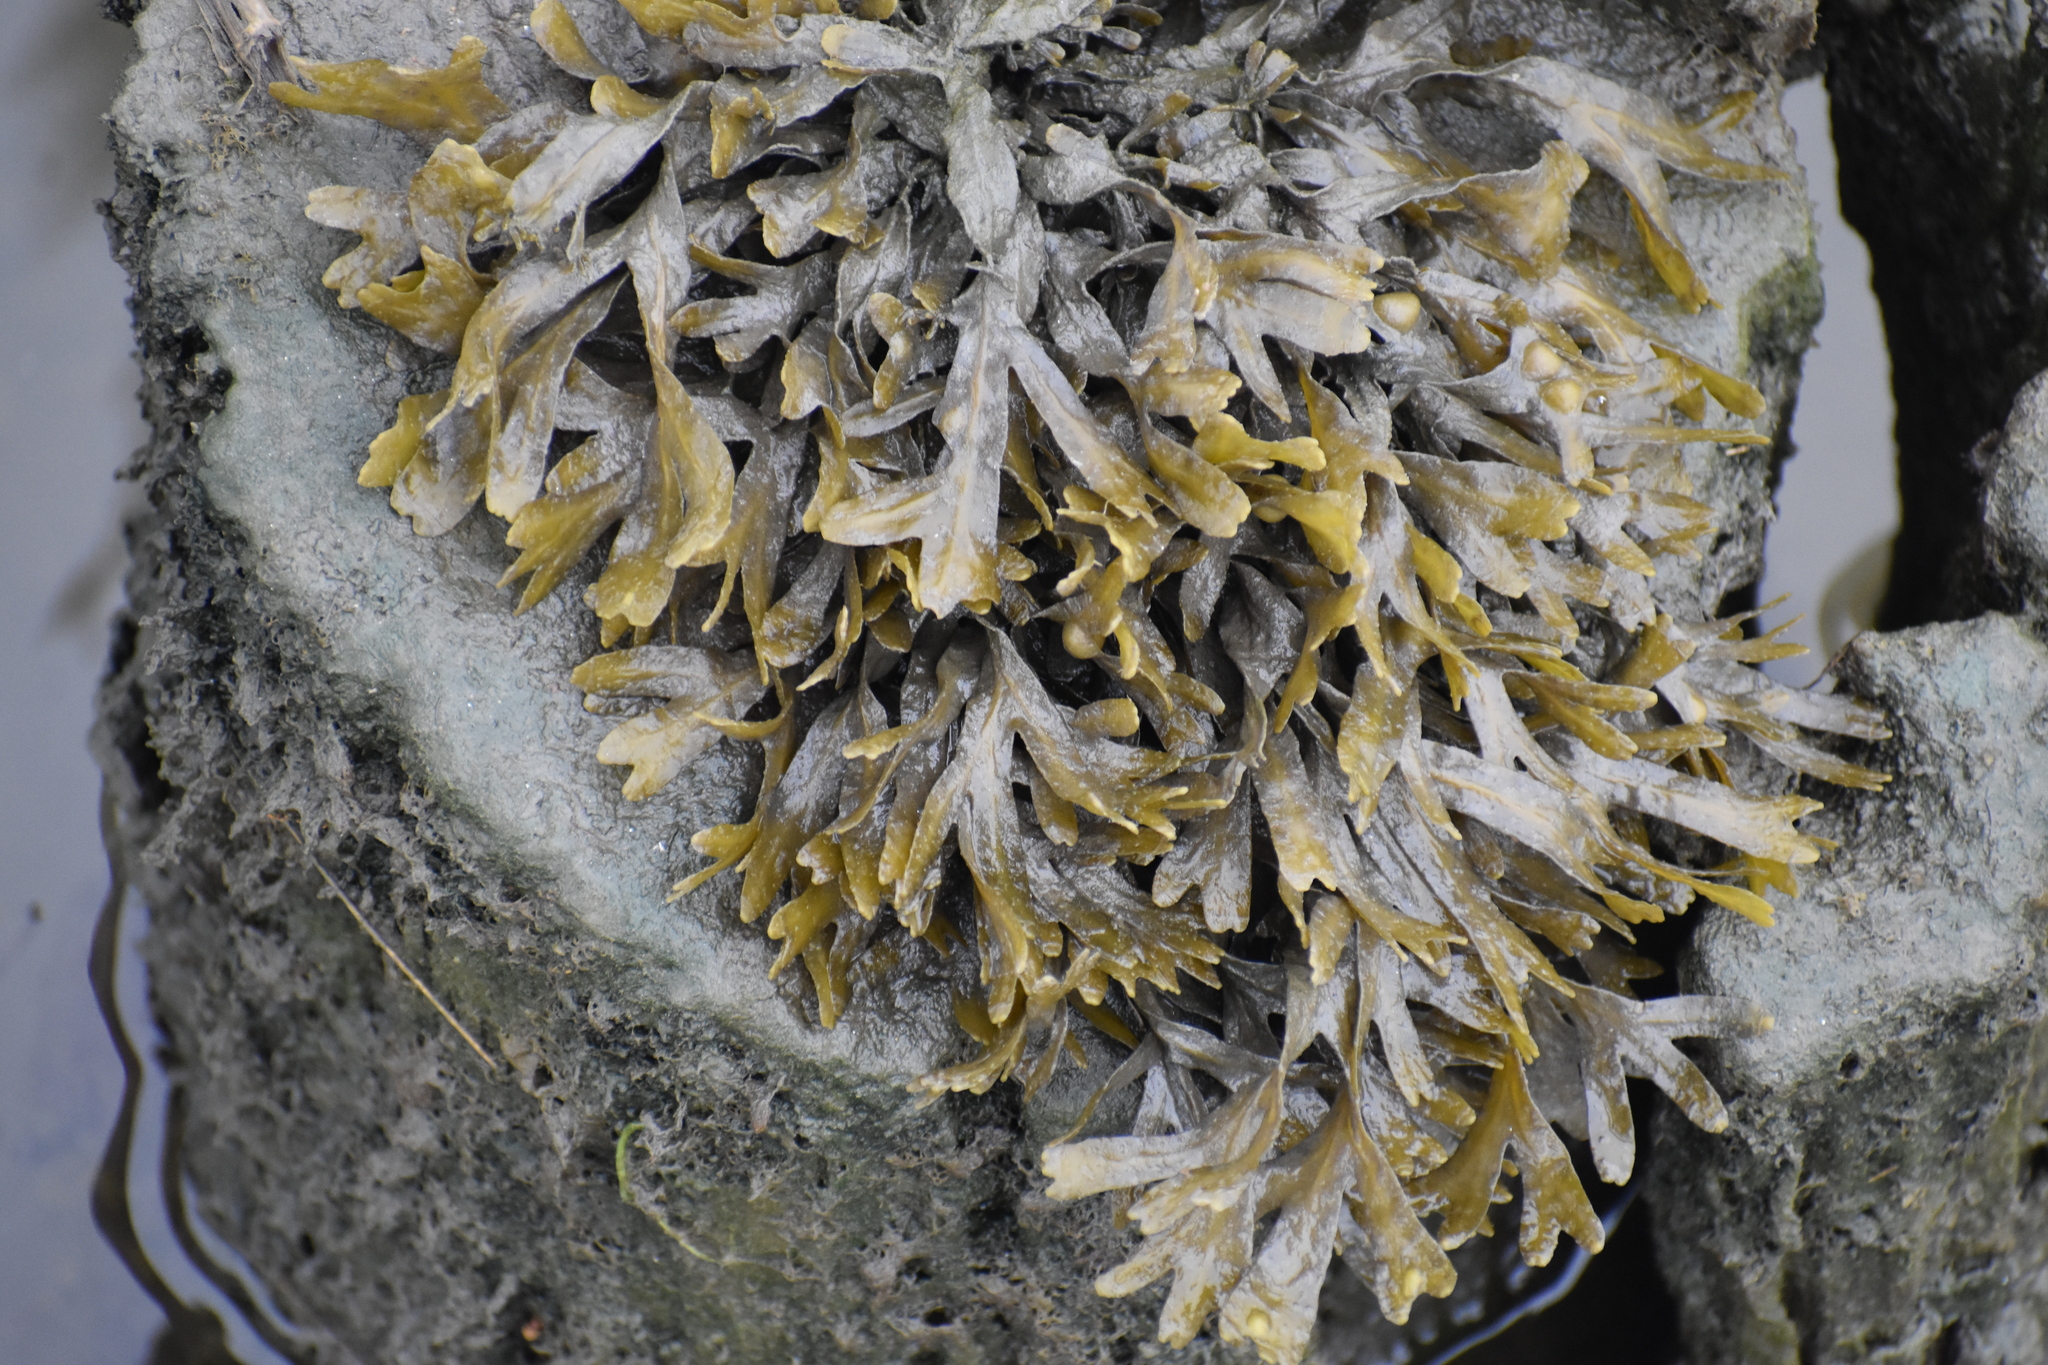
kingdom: Chromista
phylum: Ochrophyta
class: Phaeophyceae
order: Fucales
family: Fucaceae
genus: Fucus
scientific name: Fucus distichus
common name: Rockweed
